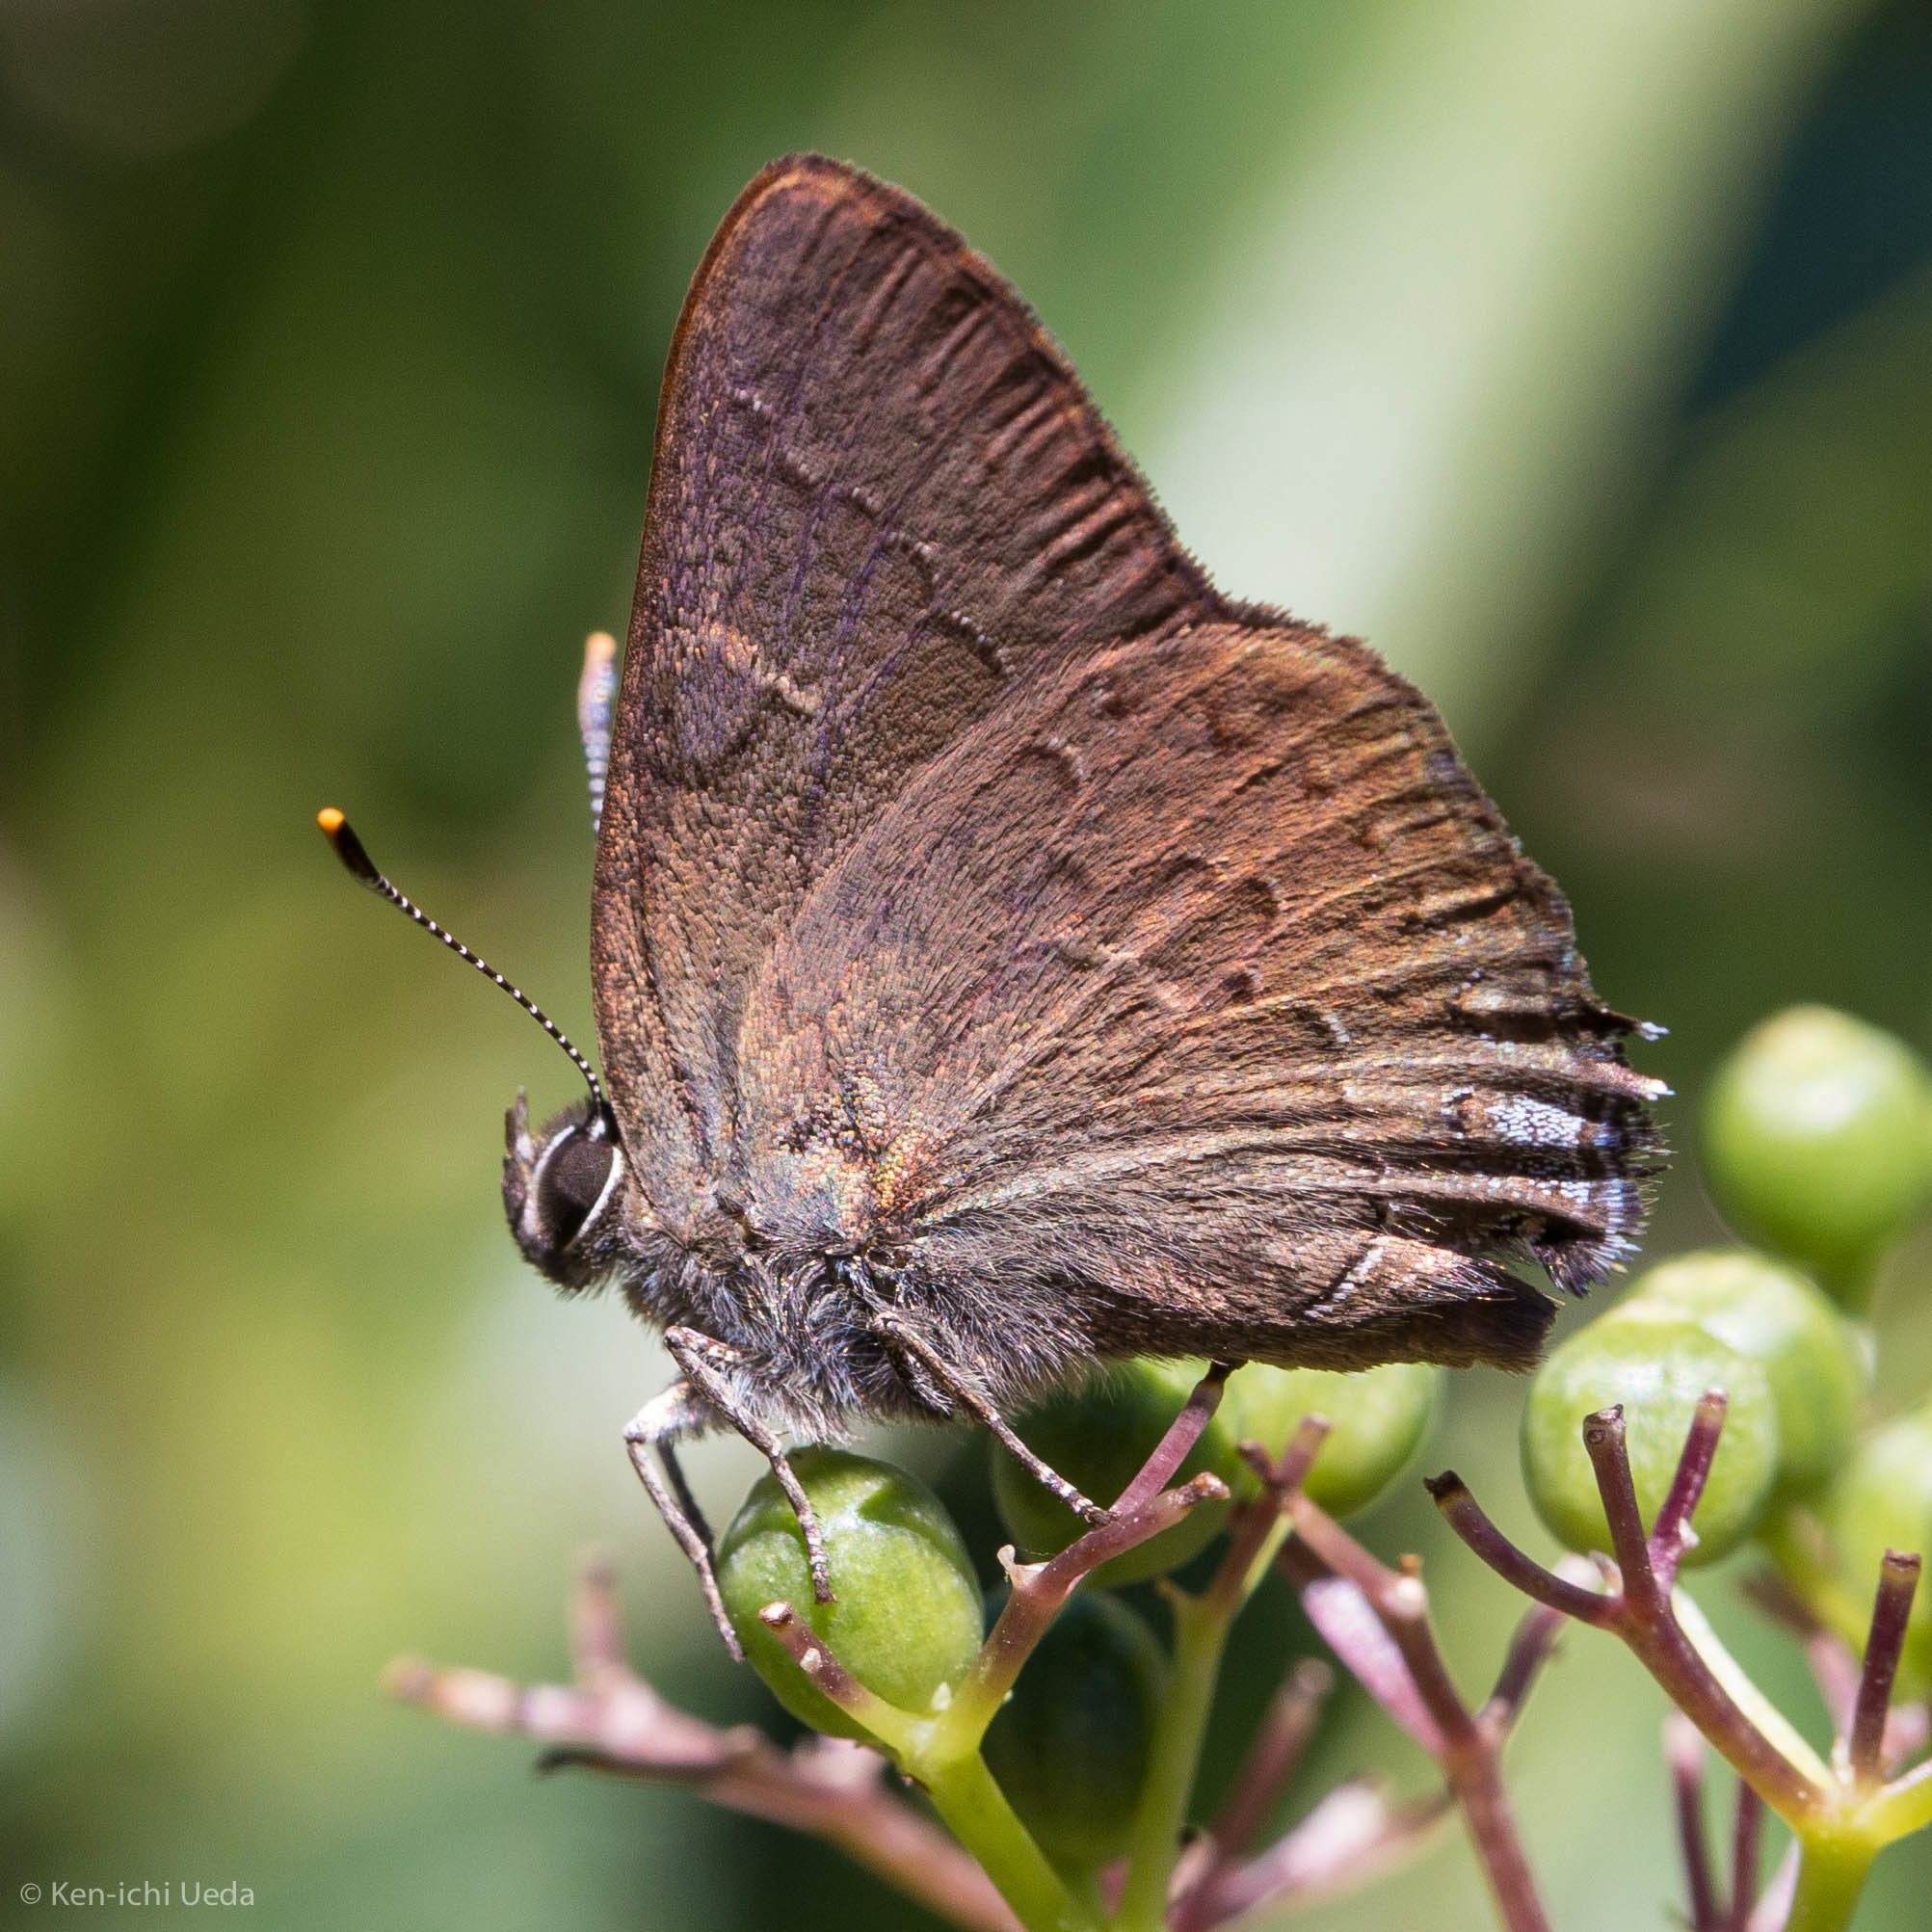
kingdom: Animalia
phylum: Arthropoda
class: Insecta
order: Lepidoptera
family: Lycaenidae
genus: Strymon
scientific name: Strymon saepium
